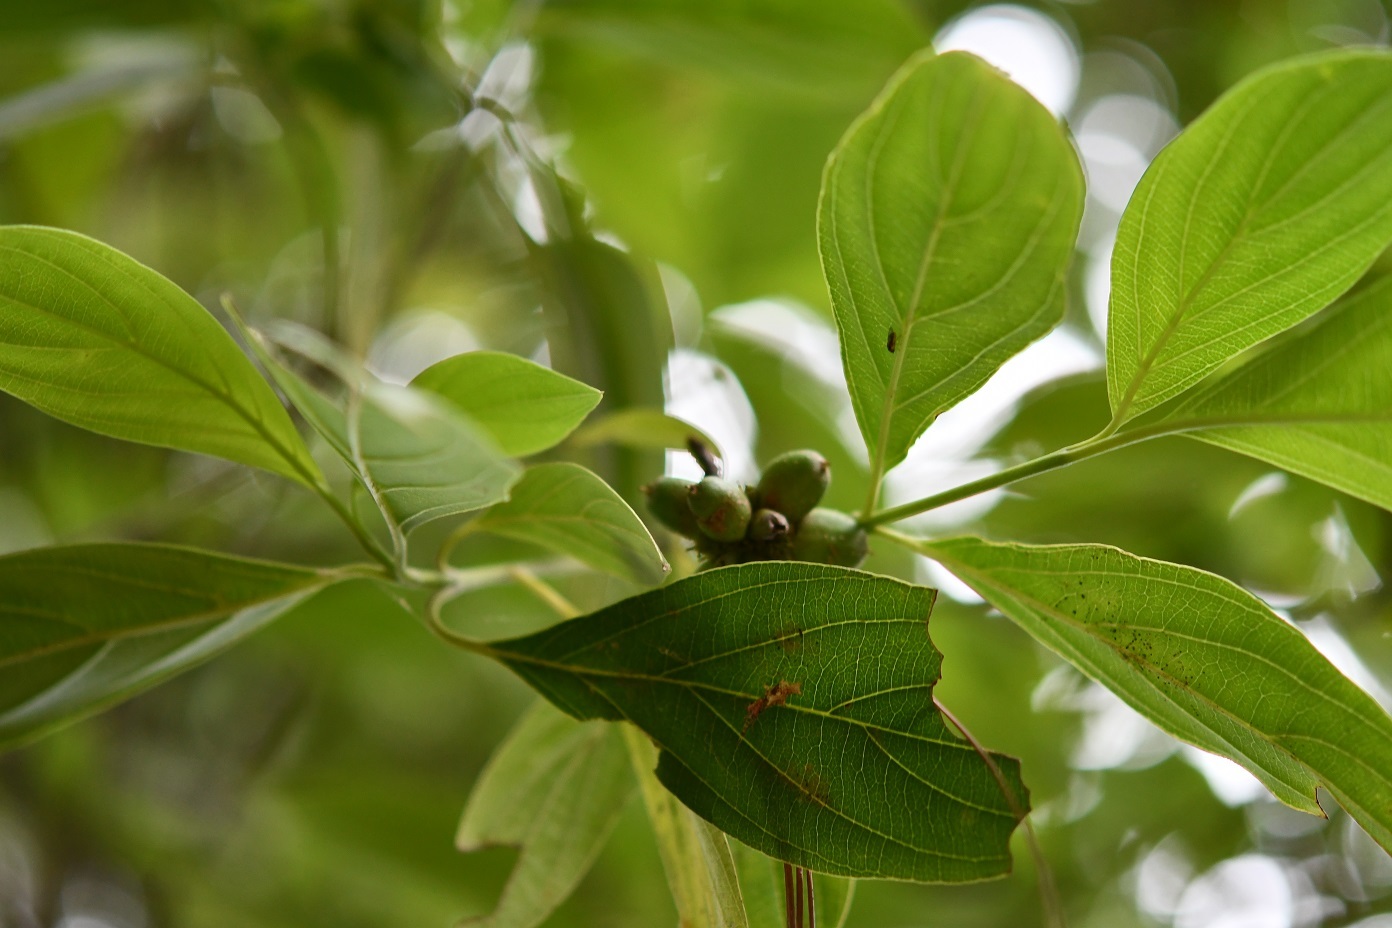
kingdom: Plantae
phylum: Tracheophyta
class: Magnoliopsida
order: Cornales
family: Cornaceae
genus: Cornus
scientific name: Cornus disciflora
